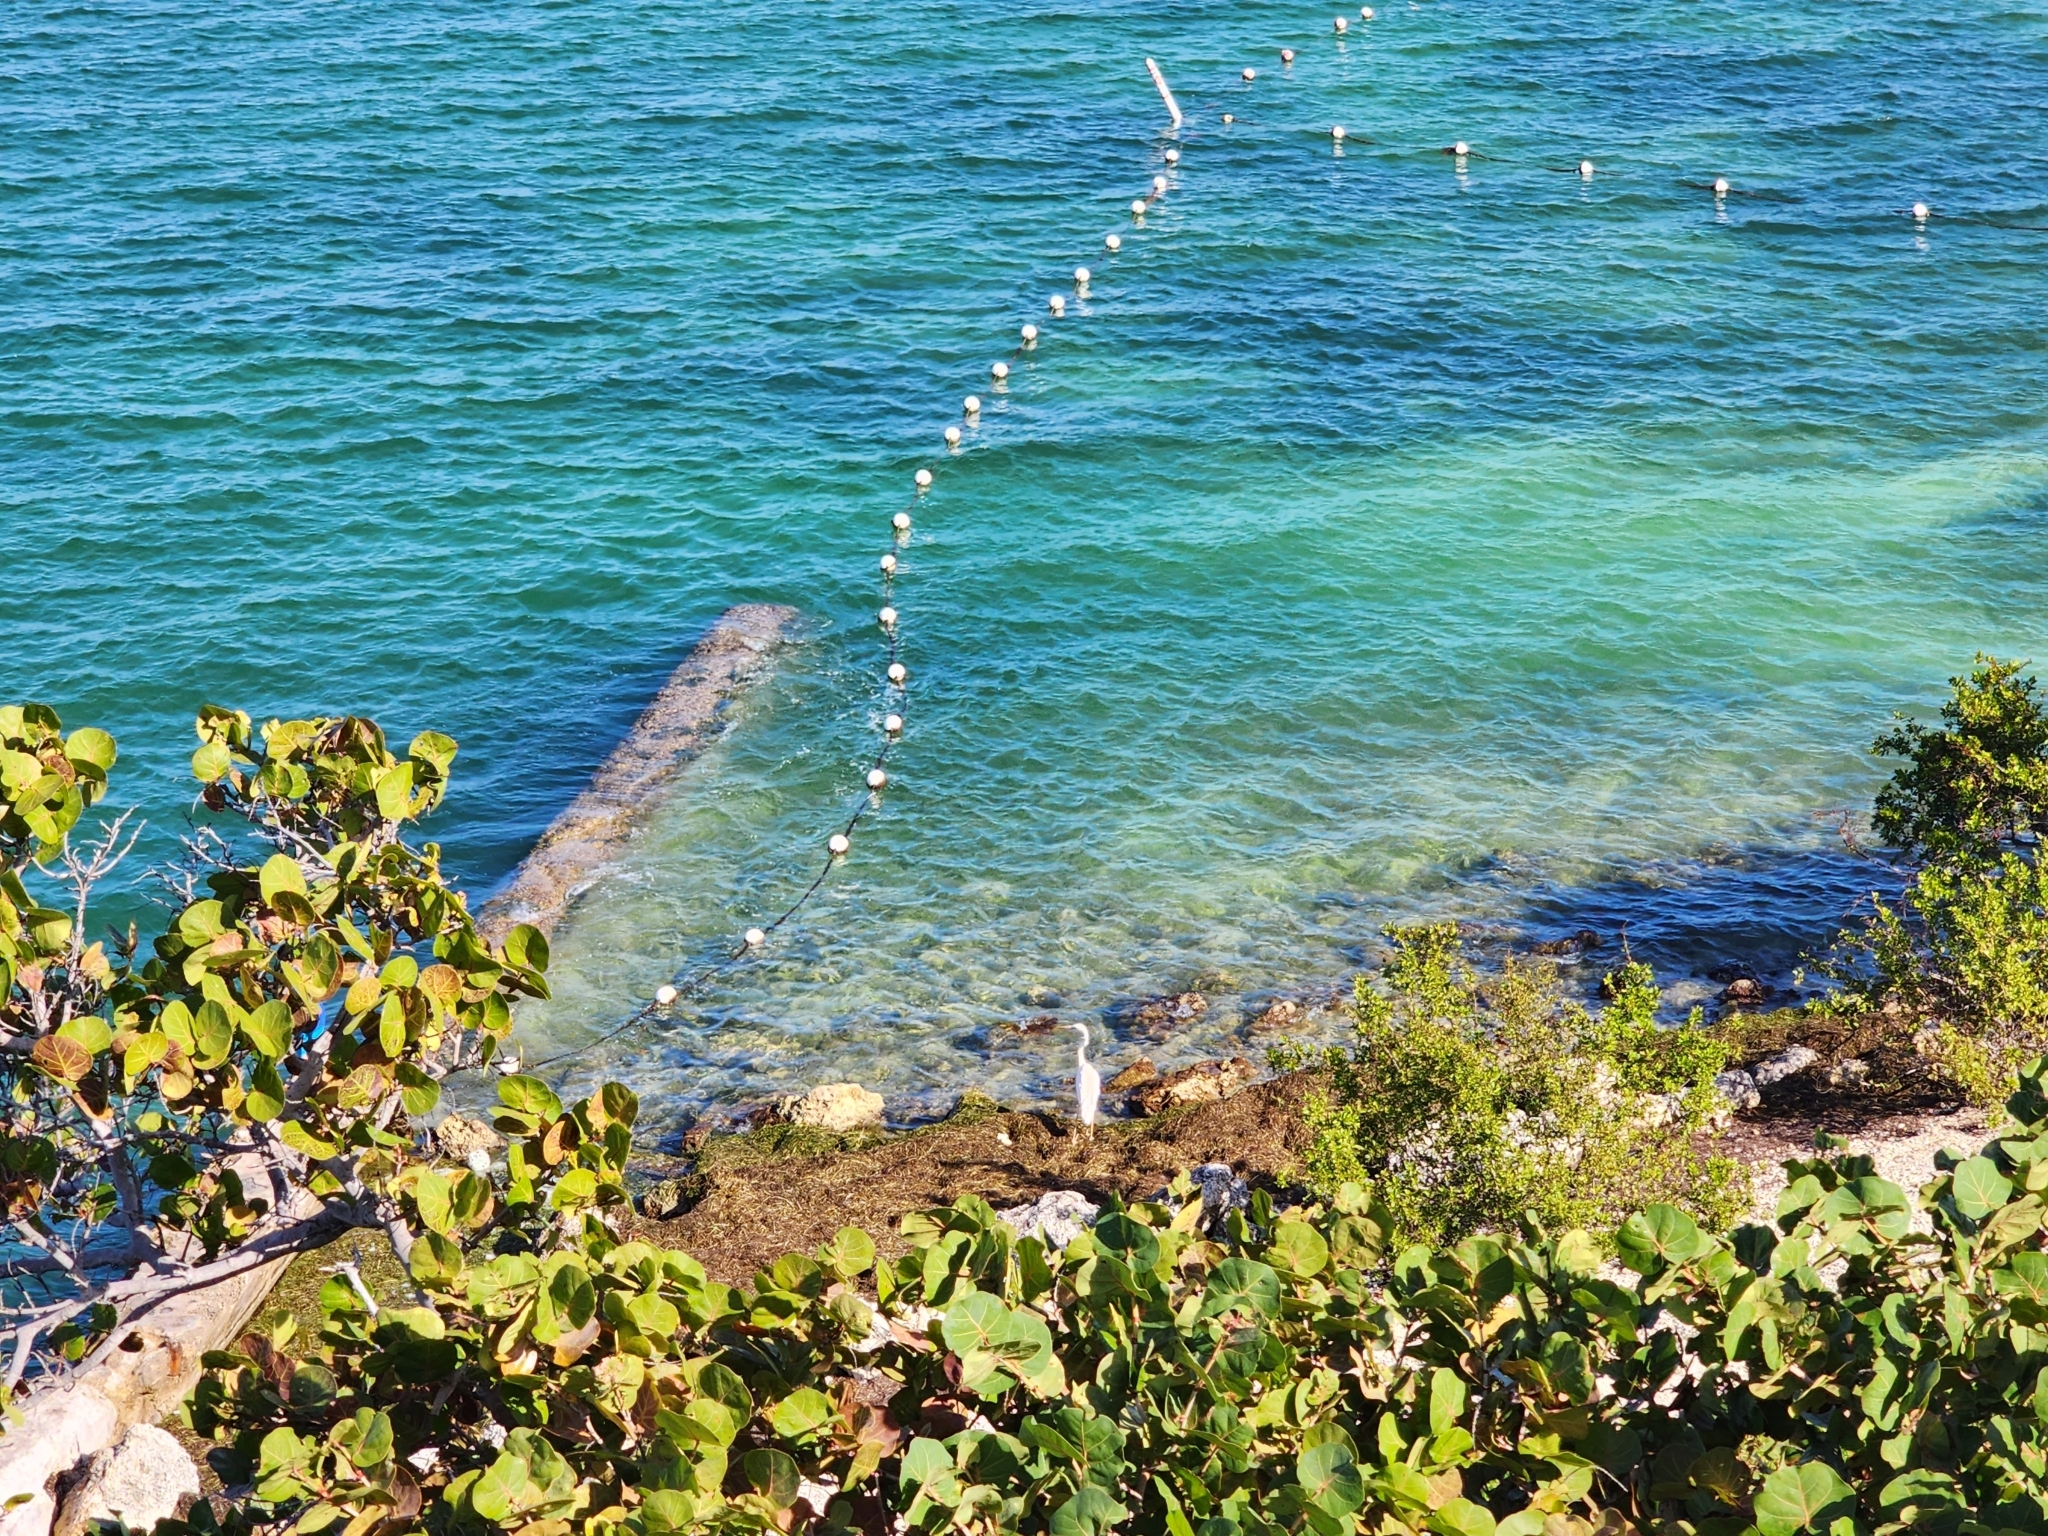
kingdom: Animalia
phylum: Chordata
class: Aves
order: Pelecaniformes
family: Ardeidae
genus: Ardea
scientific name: Ardea herodias
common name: Great blue heron
